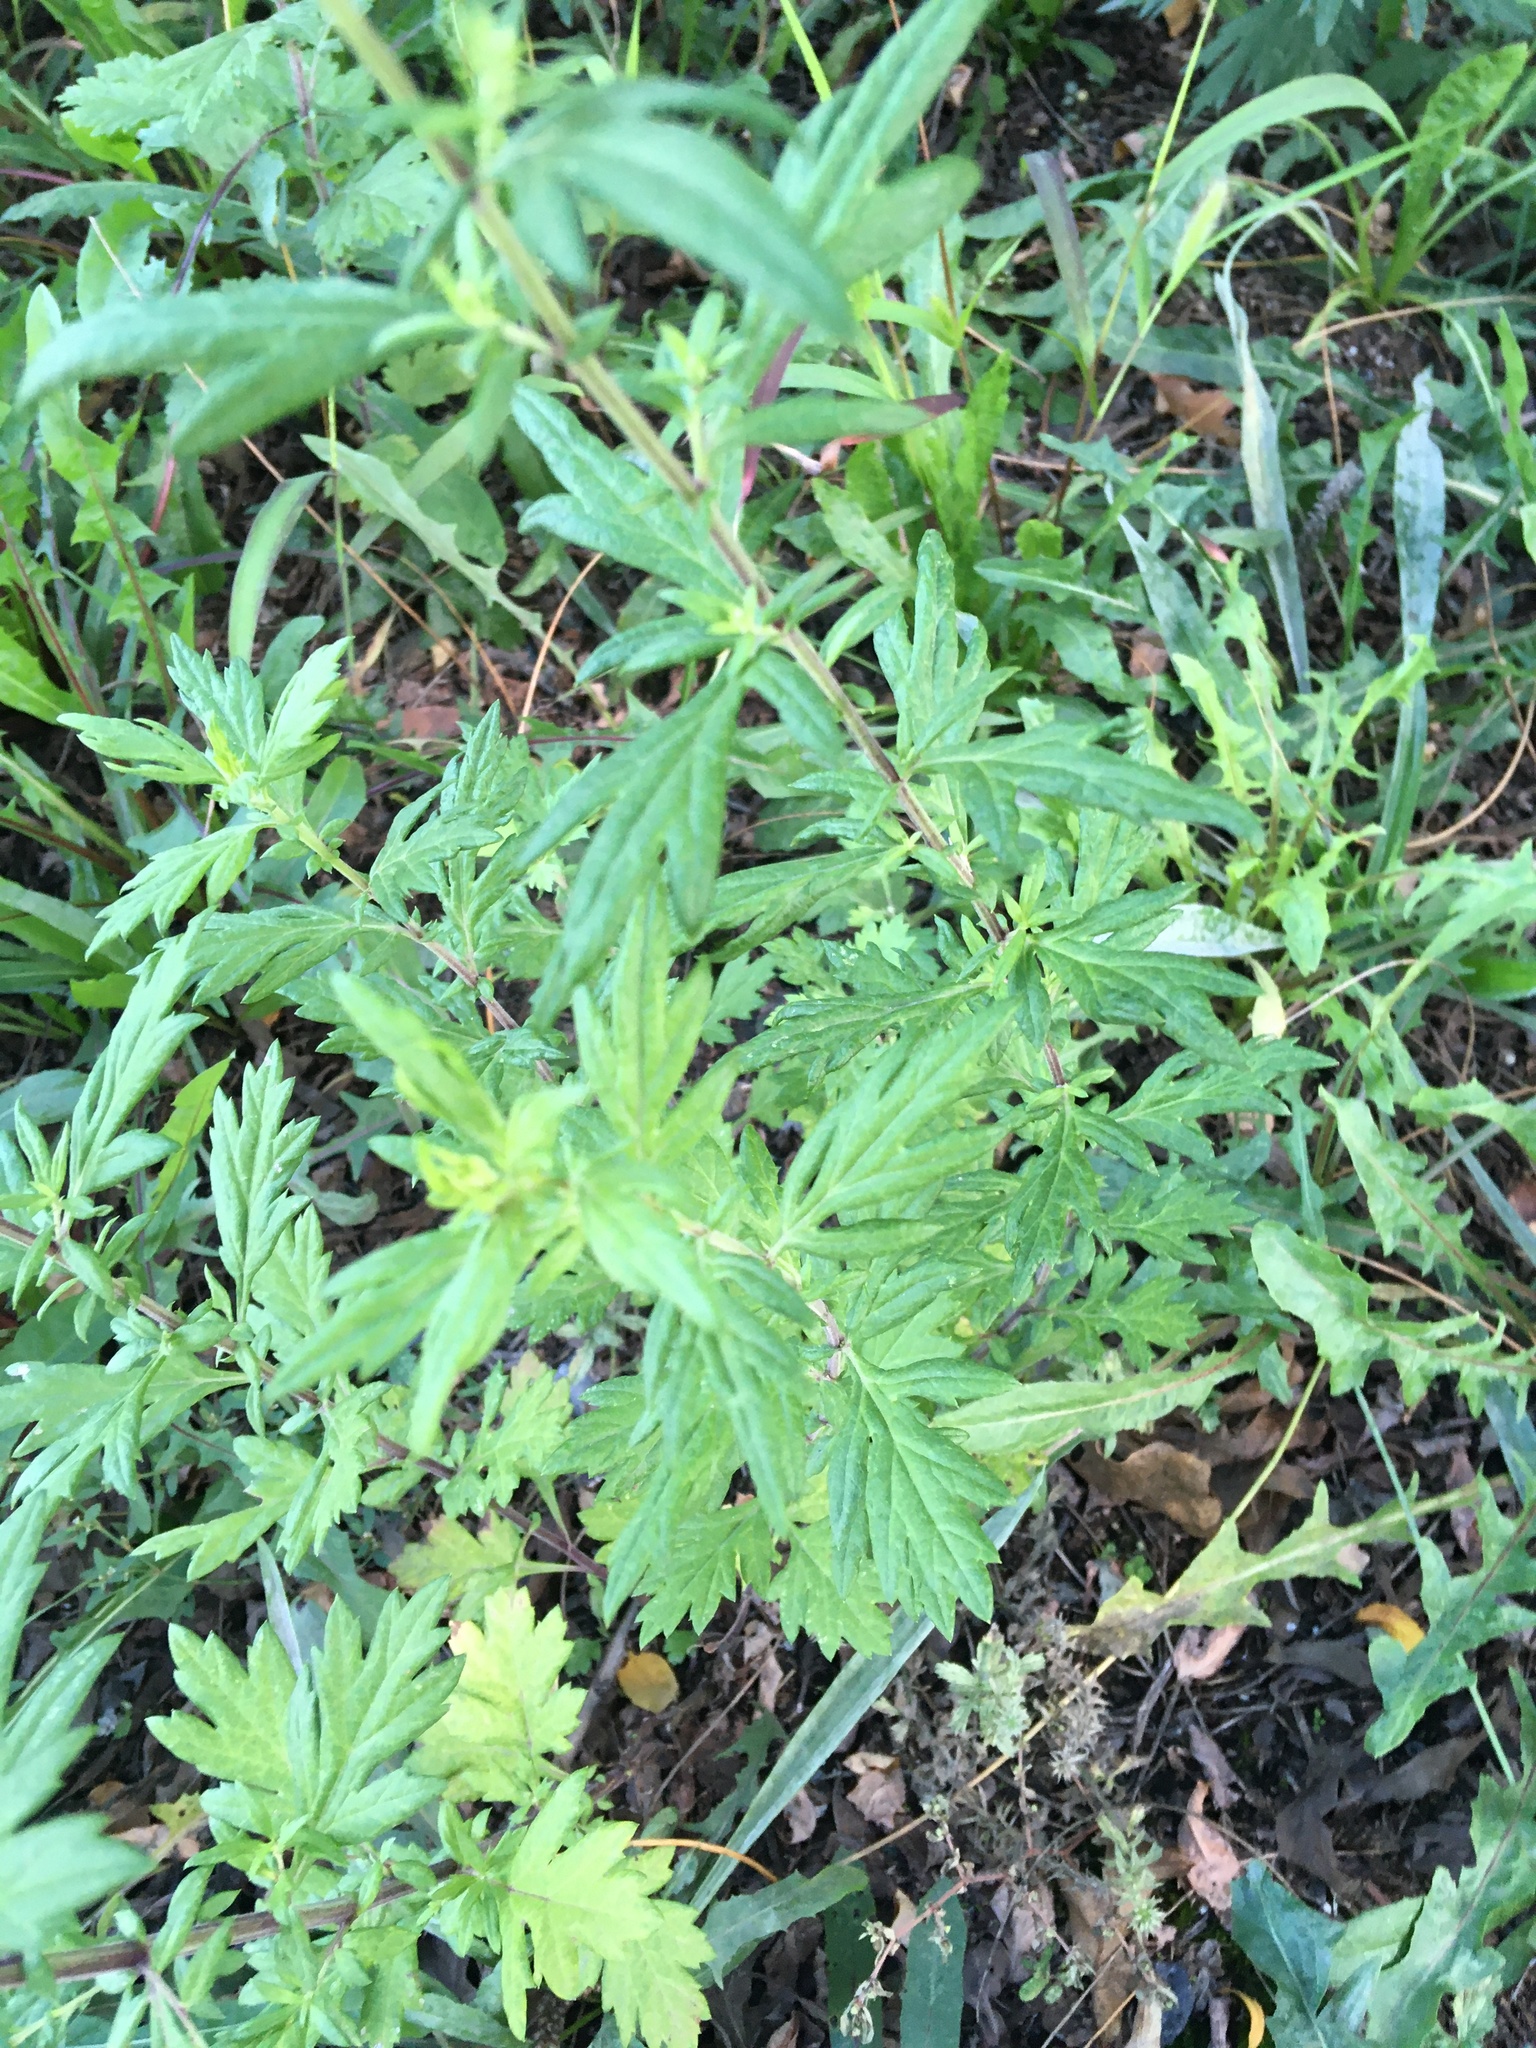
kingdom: Plantae
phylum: Tracheophyta
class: Magnoliopsida
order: Asterales
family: Asteraceae
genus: Artemisia
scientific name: Artemisia vulgaris
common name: Mugwort
